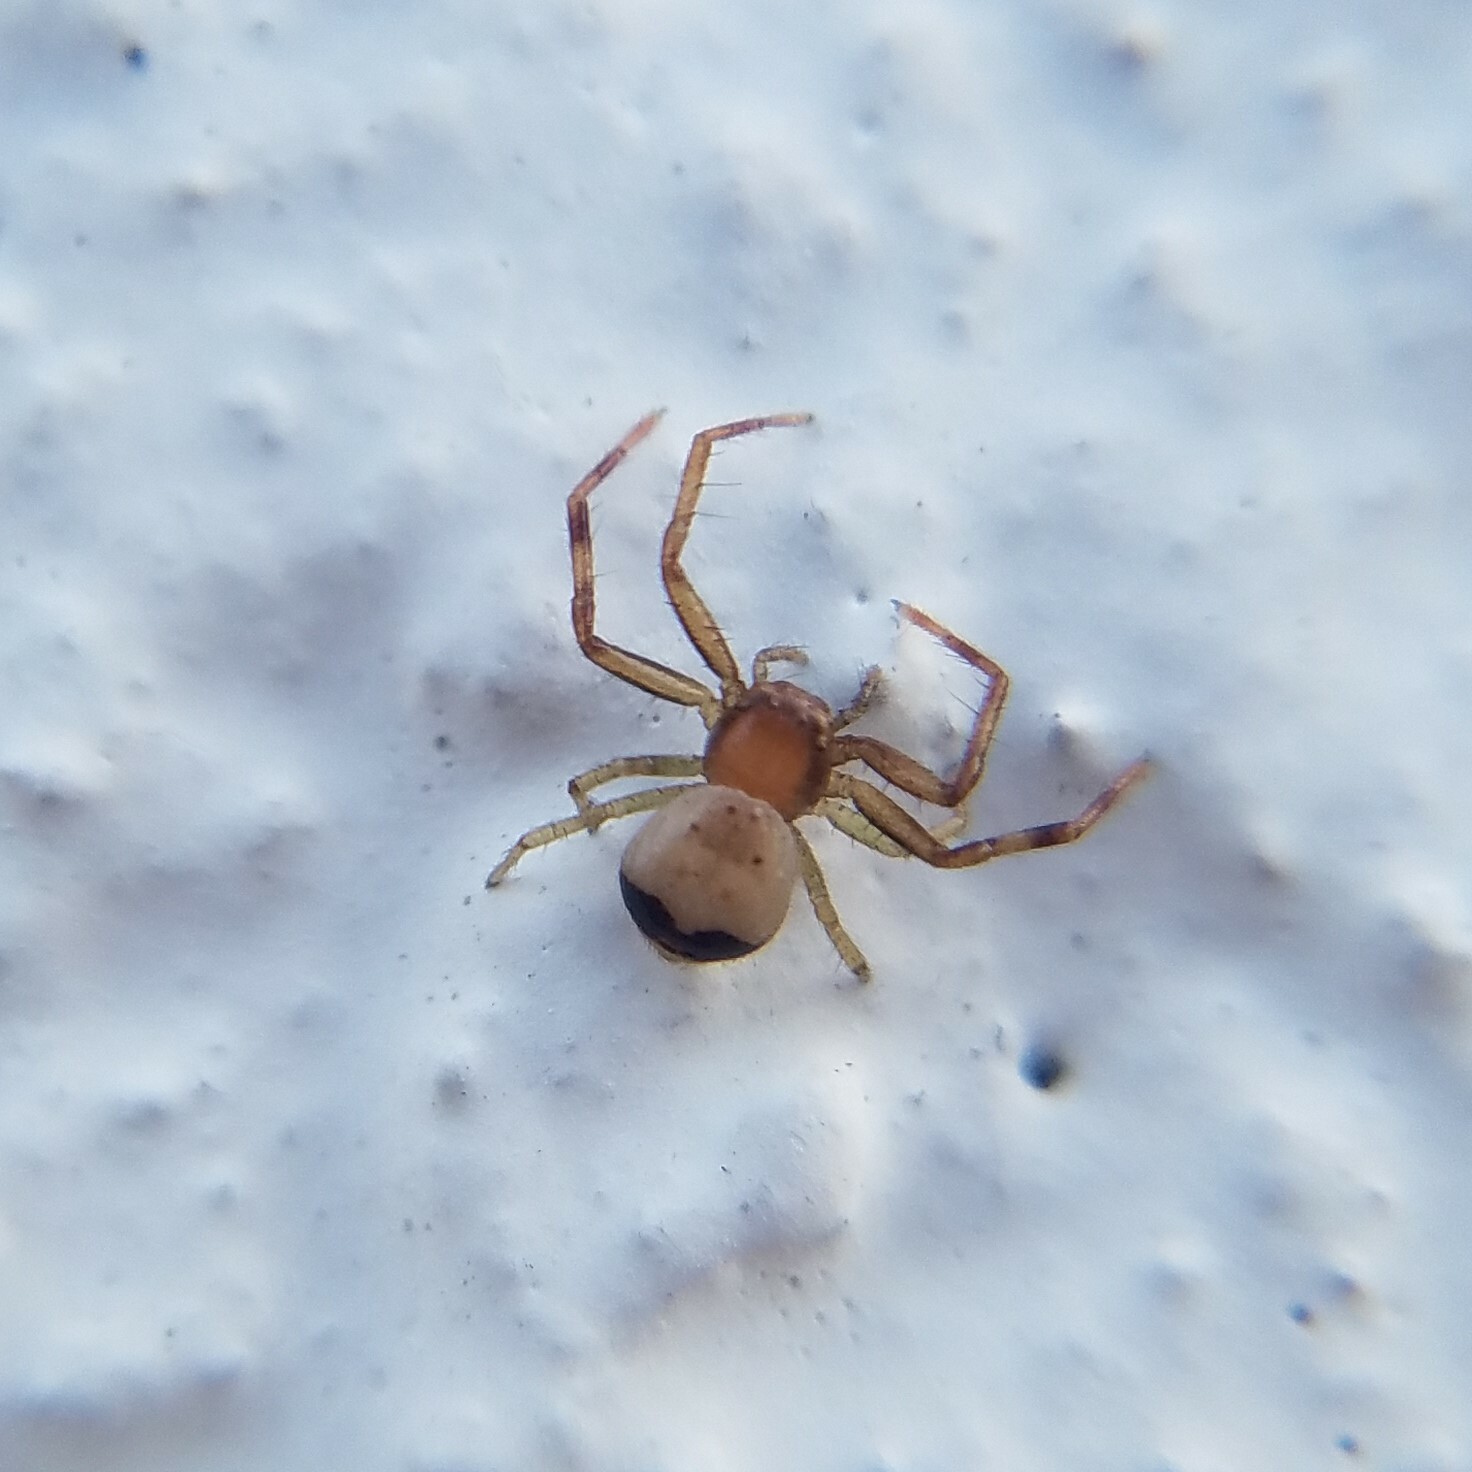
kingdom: Animalia
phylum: Arthropoda
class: Arachnida
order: Araneae
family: Thomisidae
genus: Synema
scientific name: Synema parvulum
